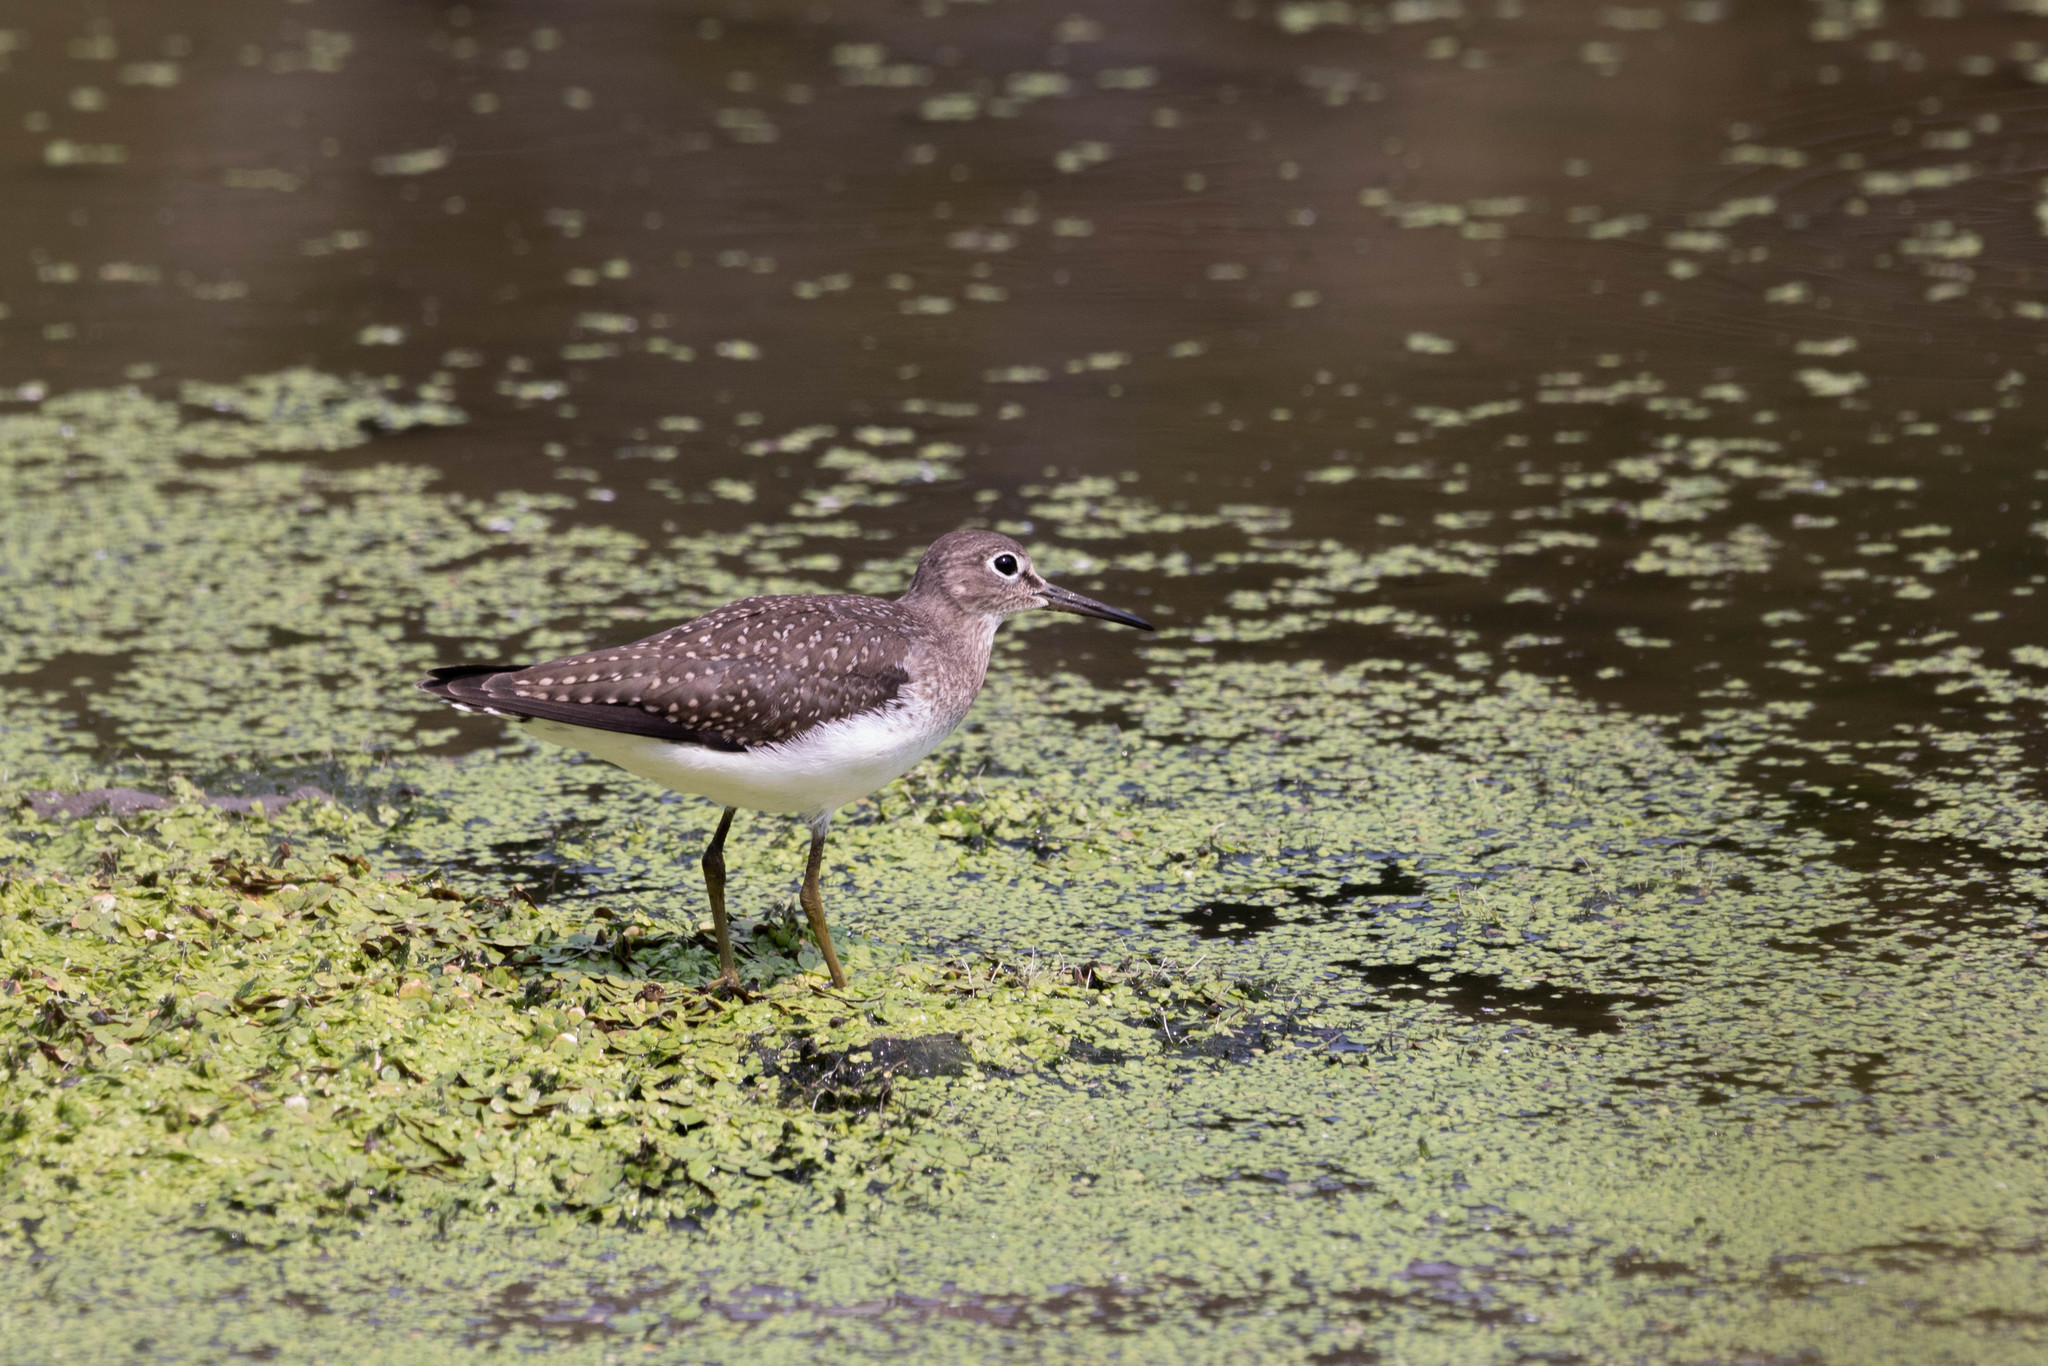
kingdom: Animalia
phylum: Chordata
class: Aves
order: Charadriiformes
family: Scolopacidae
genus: Tringa
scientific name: Tringa solitaria
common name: Solitary sandpiper
